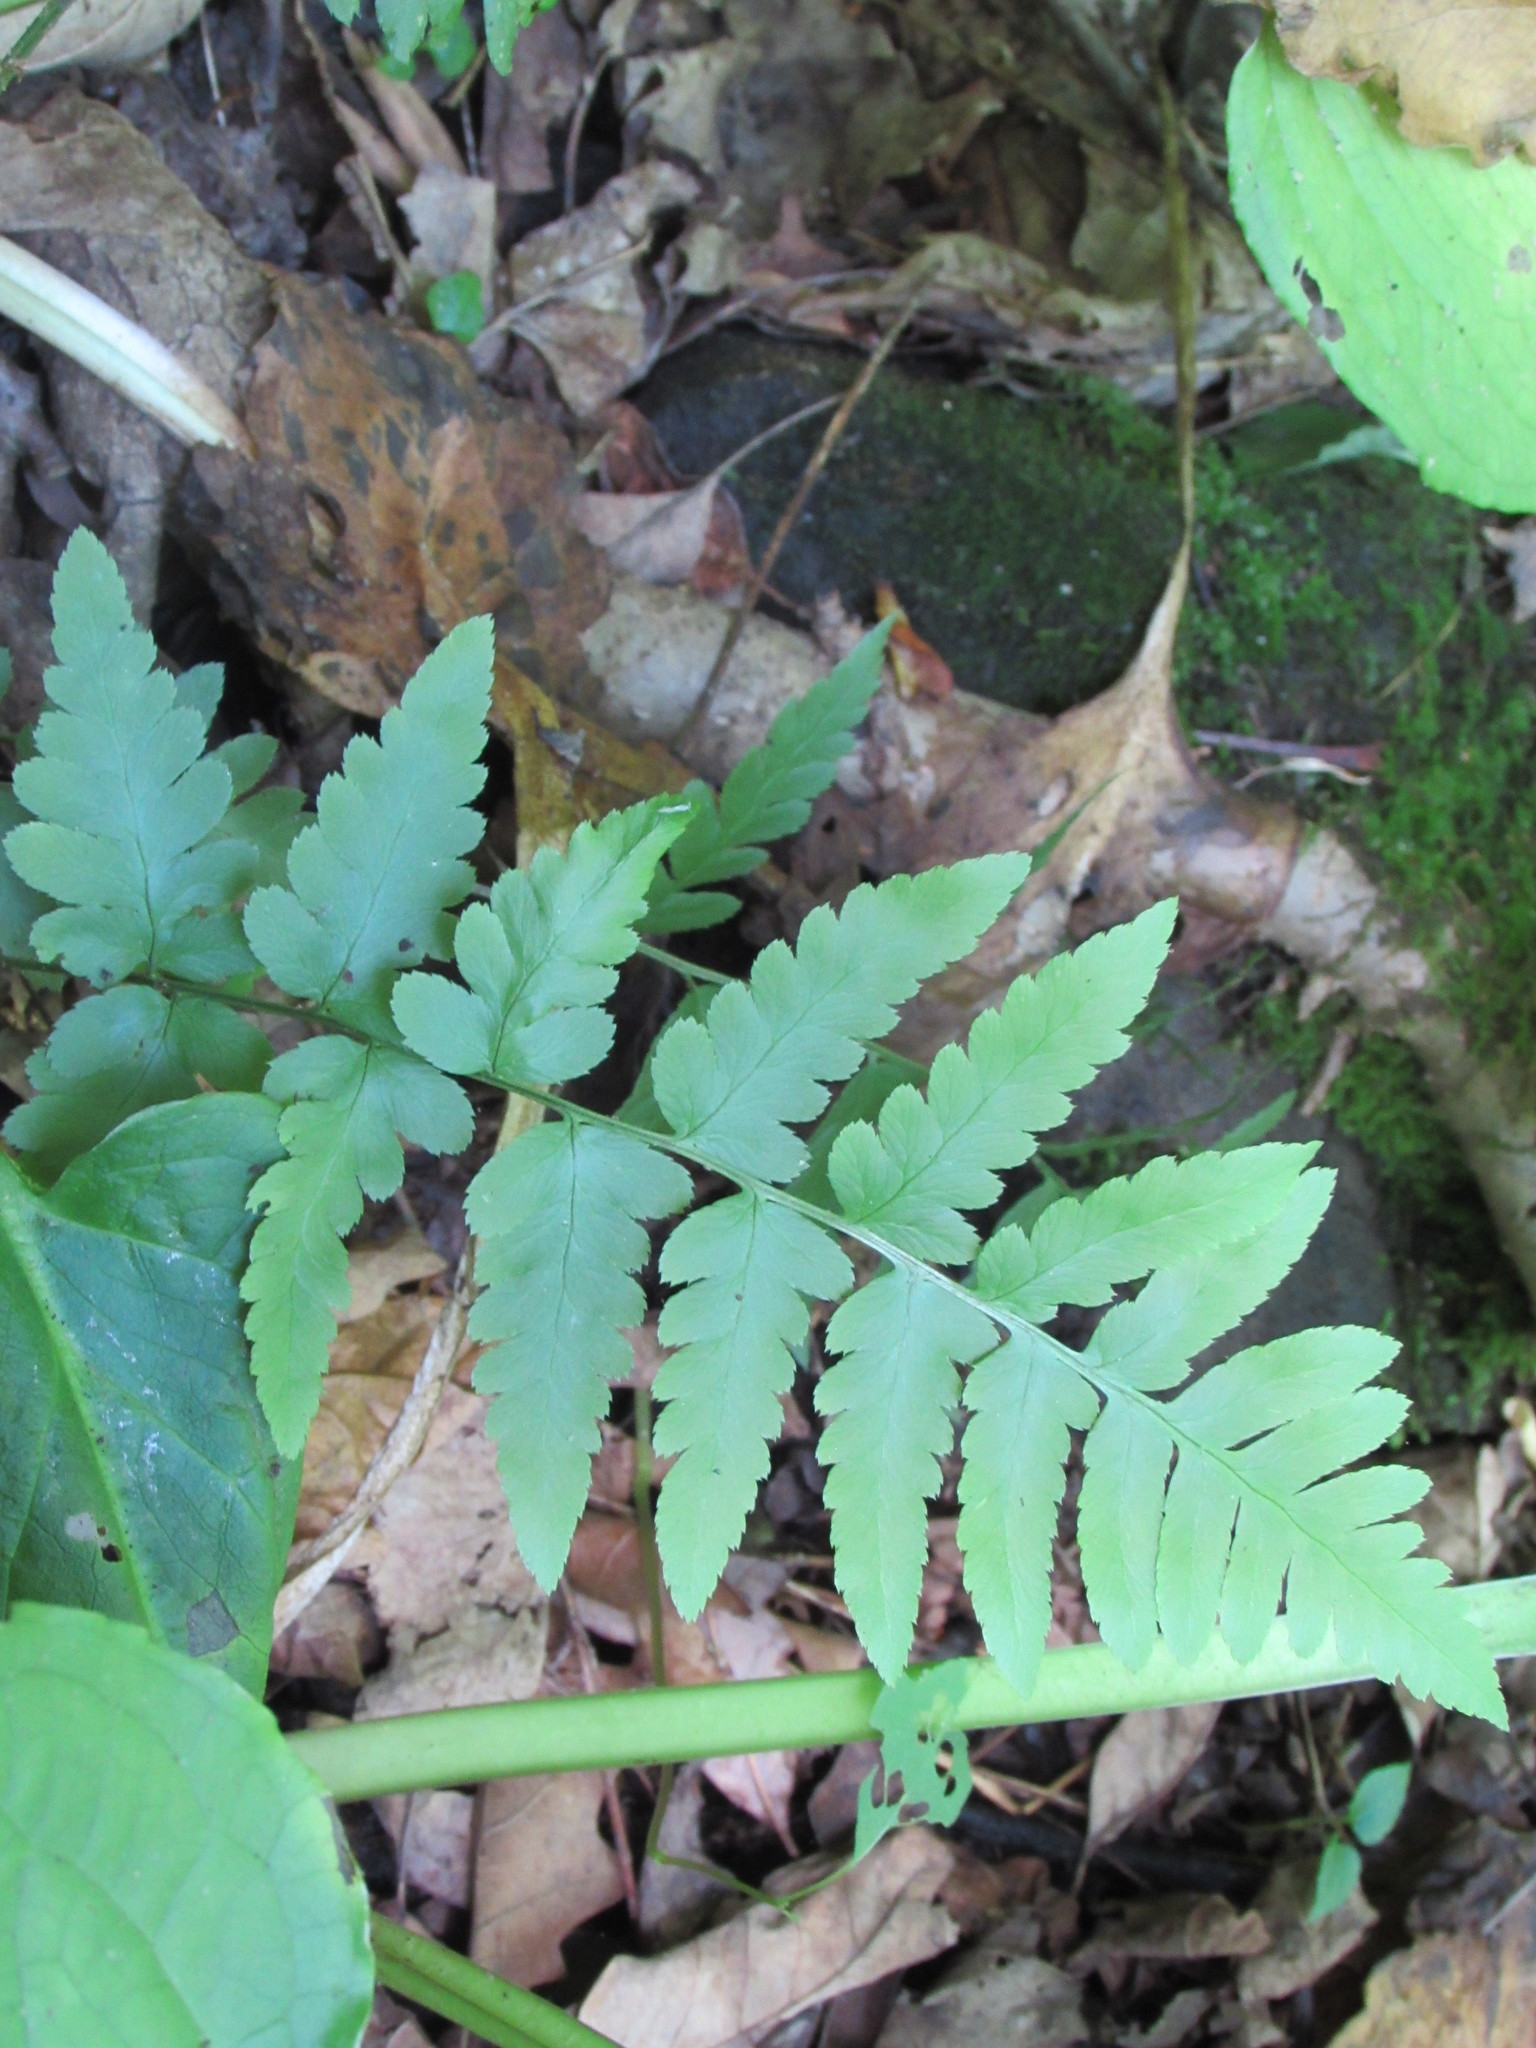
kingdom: Plantae
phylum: Tracheophyta
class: Polypodiopsida
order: Polypodiales
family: Dryopteridaceae
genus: Dryopteris
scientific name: Dryopteris cristata
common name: Crested wood fern
